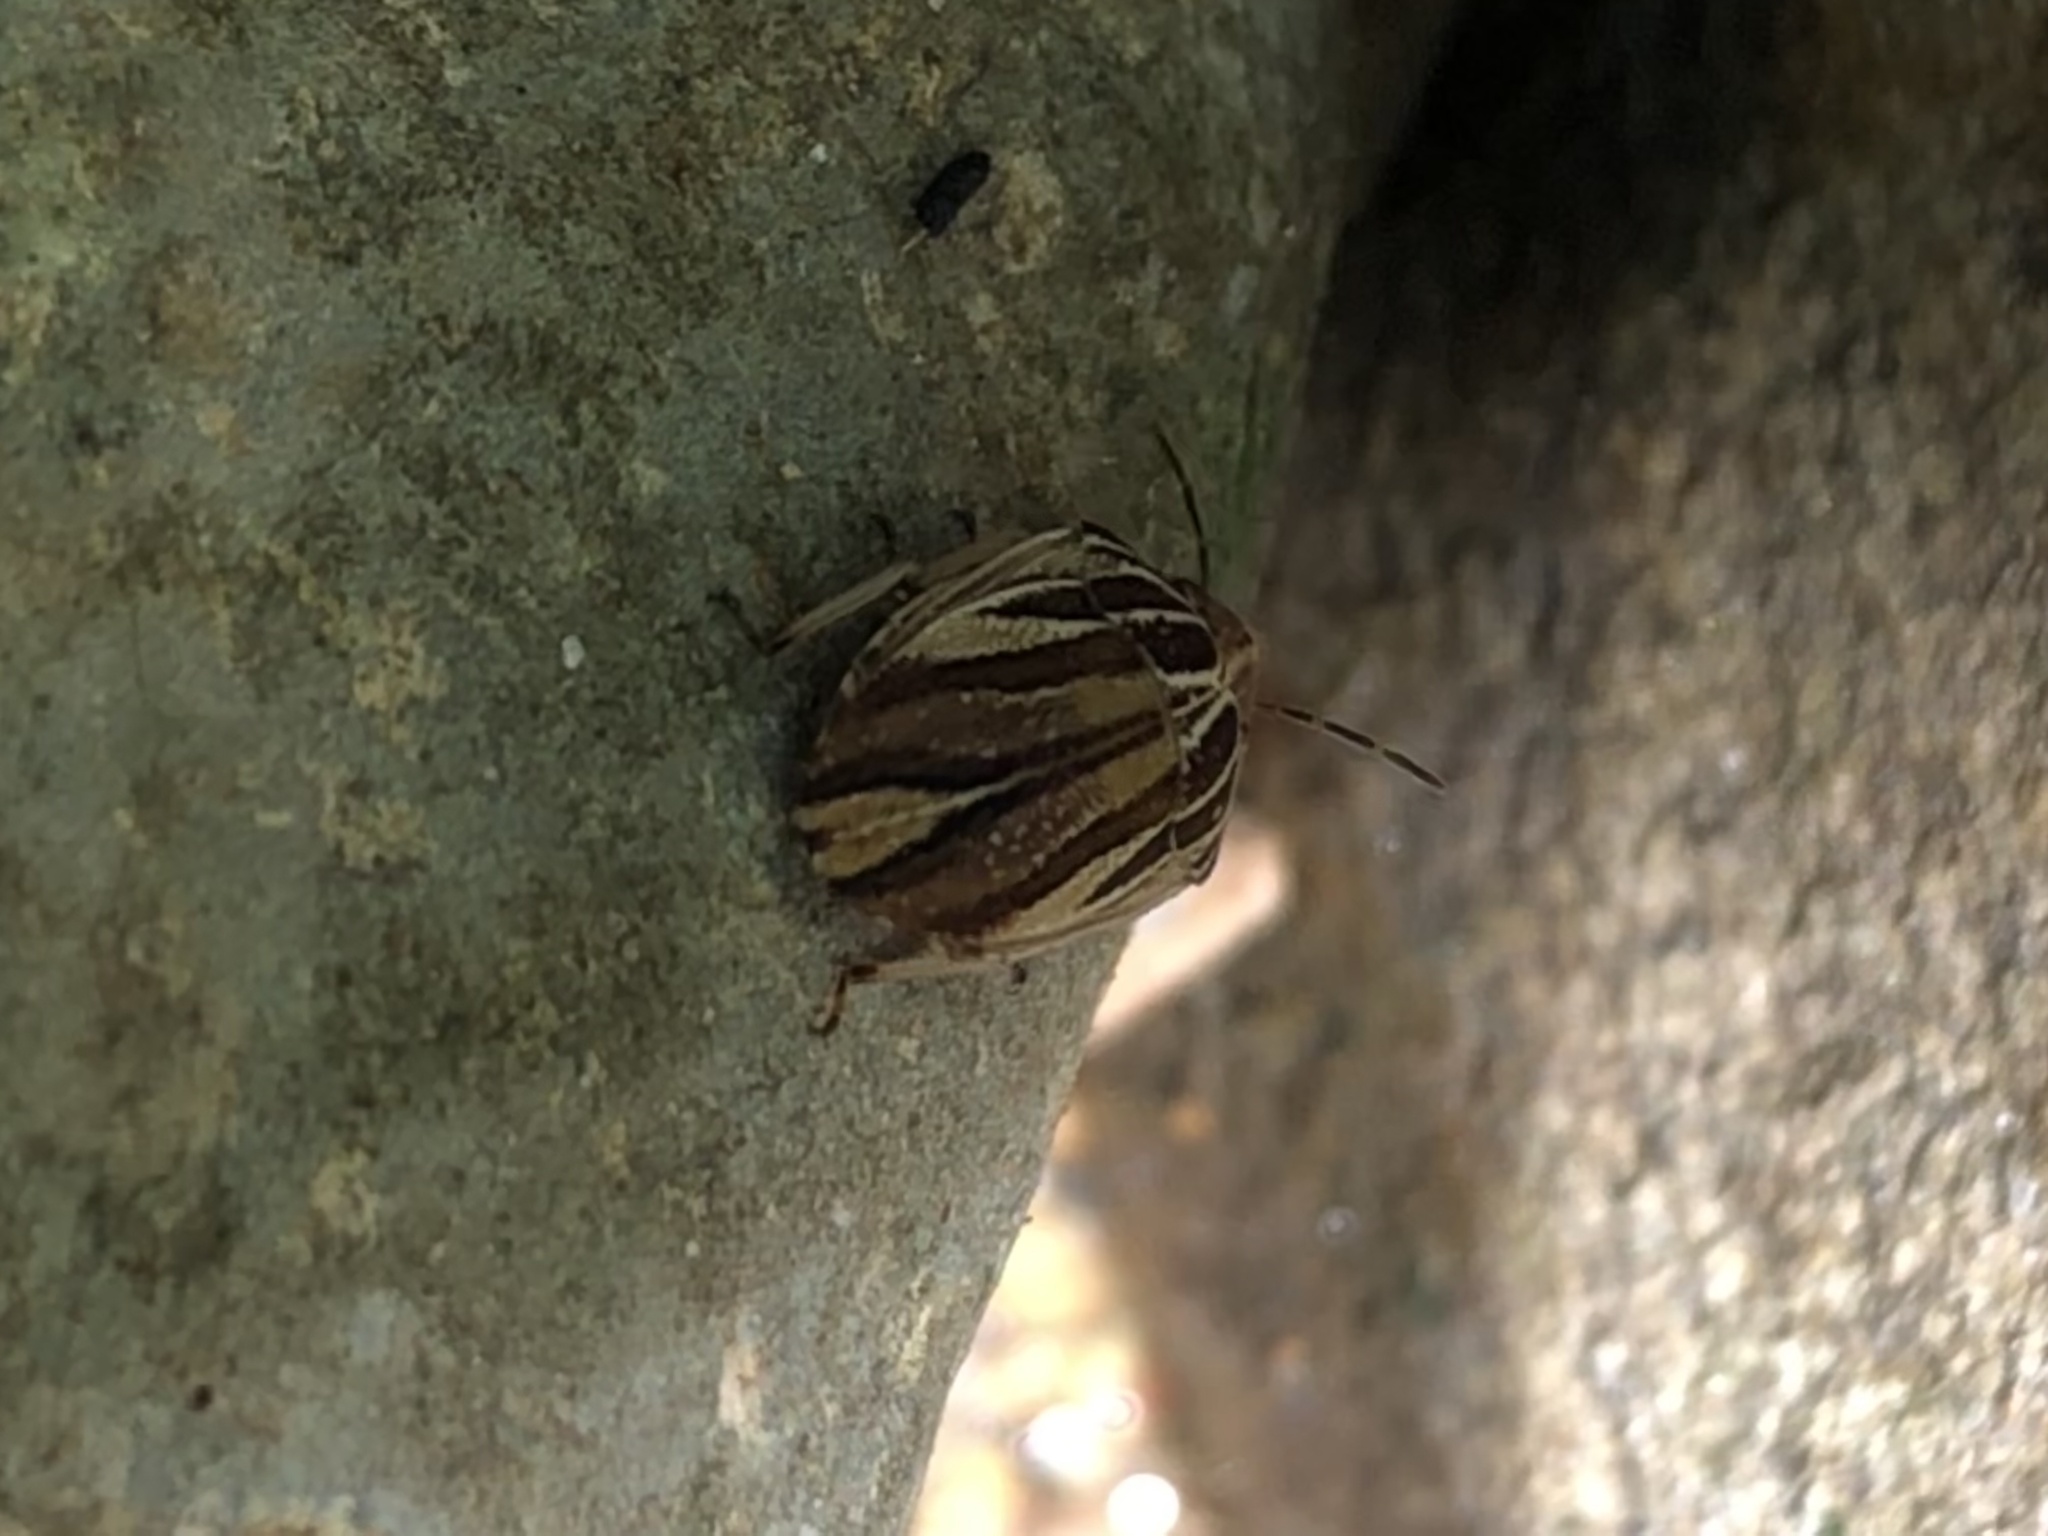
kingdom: Animalia
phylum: Arthropoda
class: Insecta
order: Hemiptera
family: Scutelleridae
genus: Symphylus
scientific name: Symphylus ramivitta
